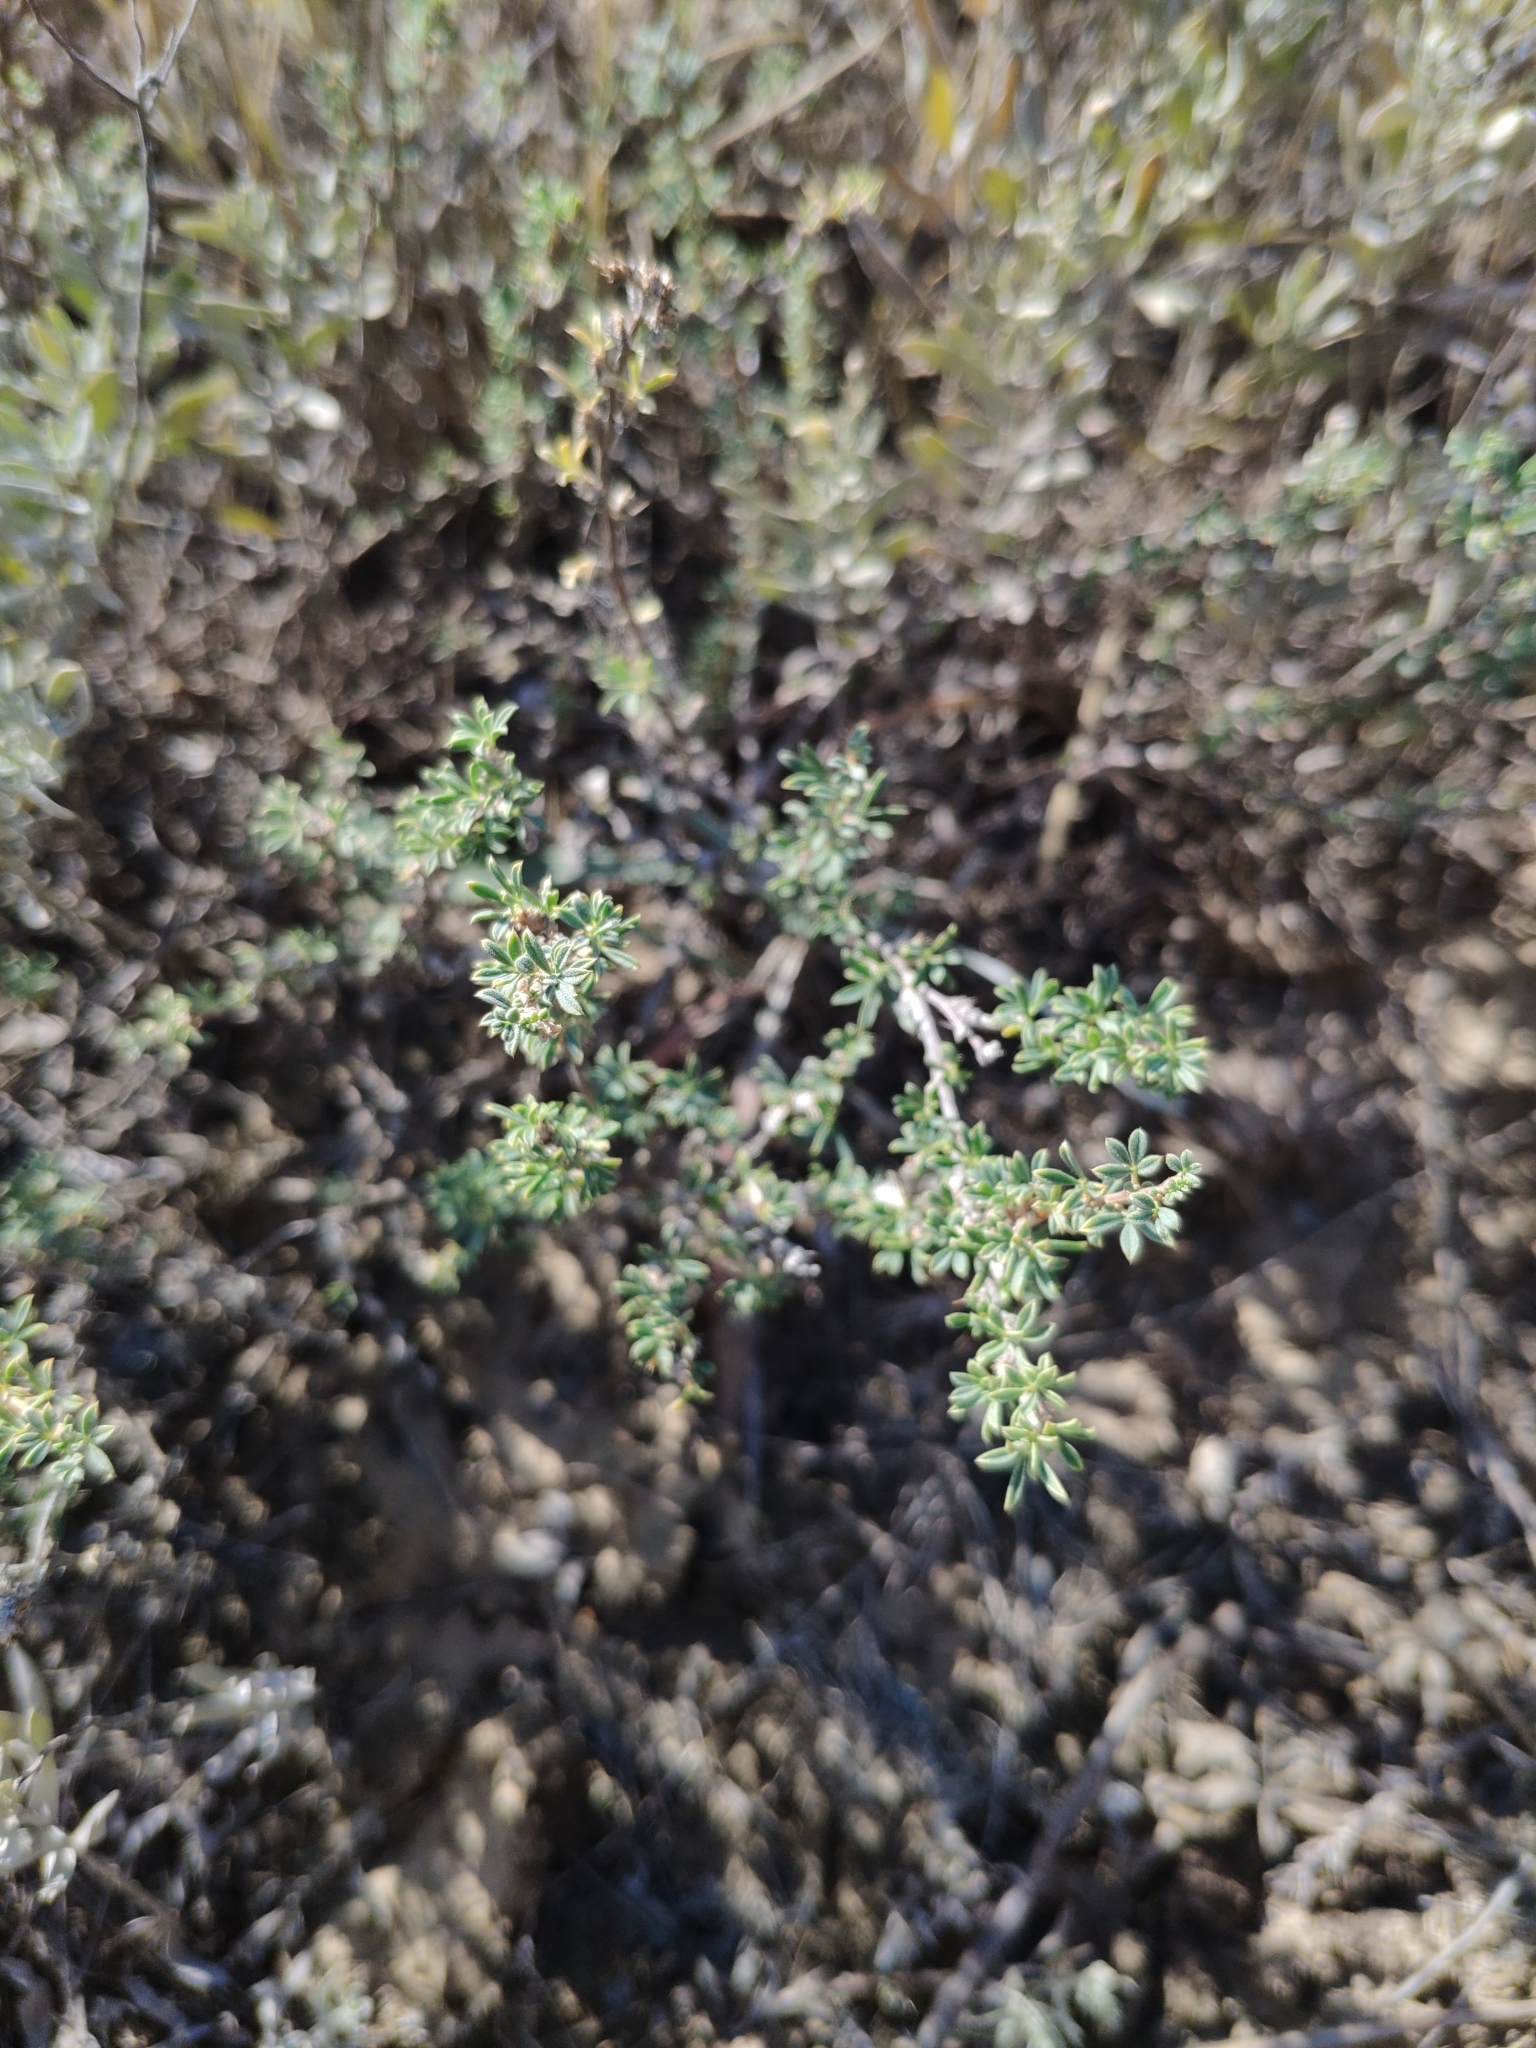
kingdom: Plantae
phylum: Tracheophyta
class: Magnoliopsida
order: Fabales
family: Fabaceae
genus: Caragana
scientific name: Caragana scythica
